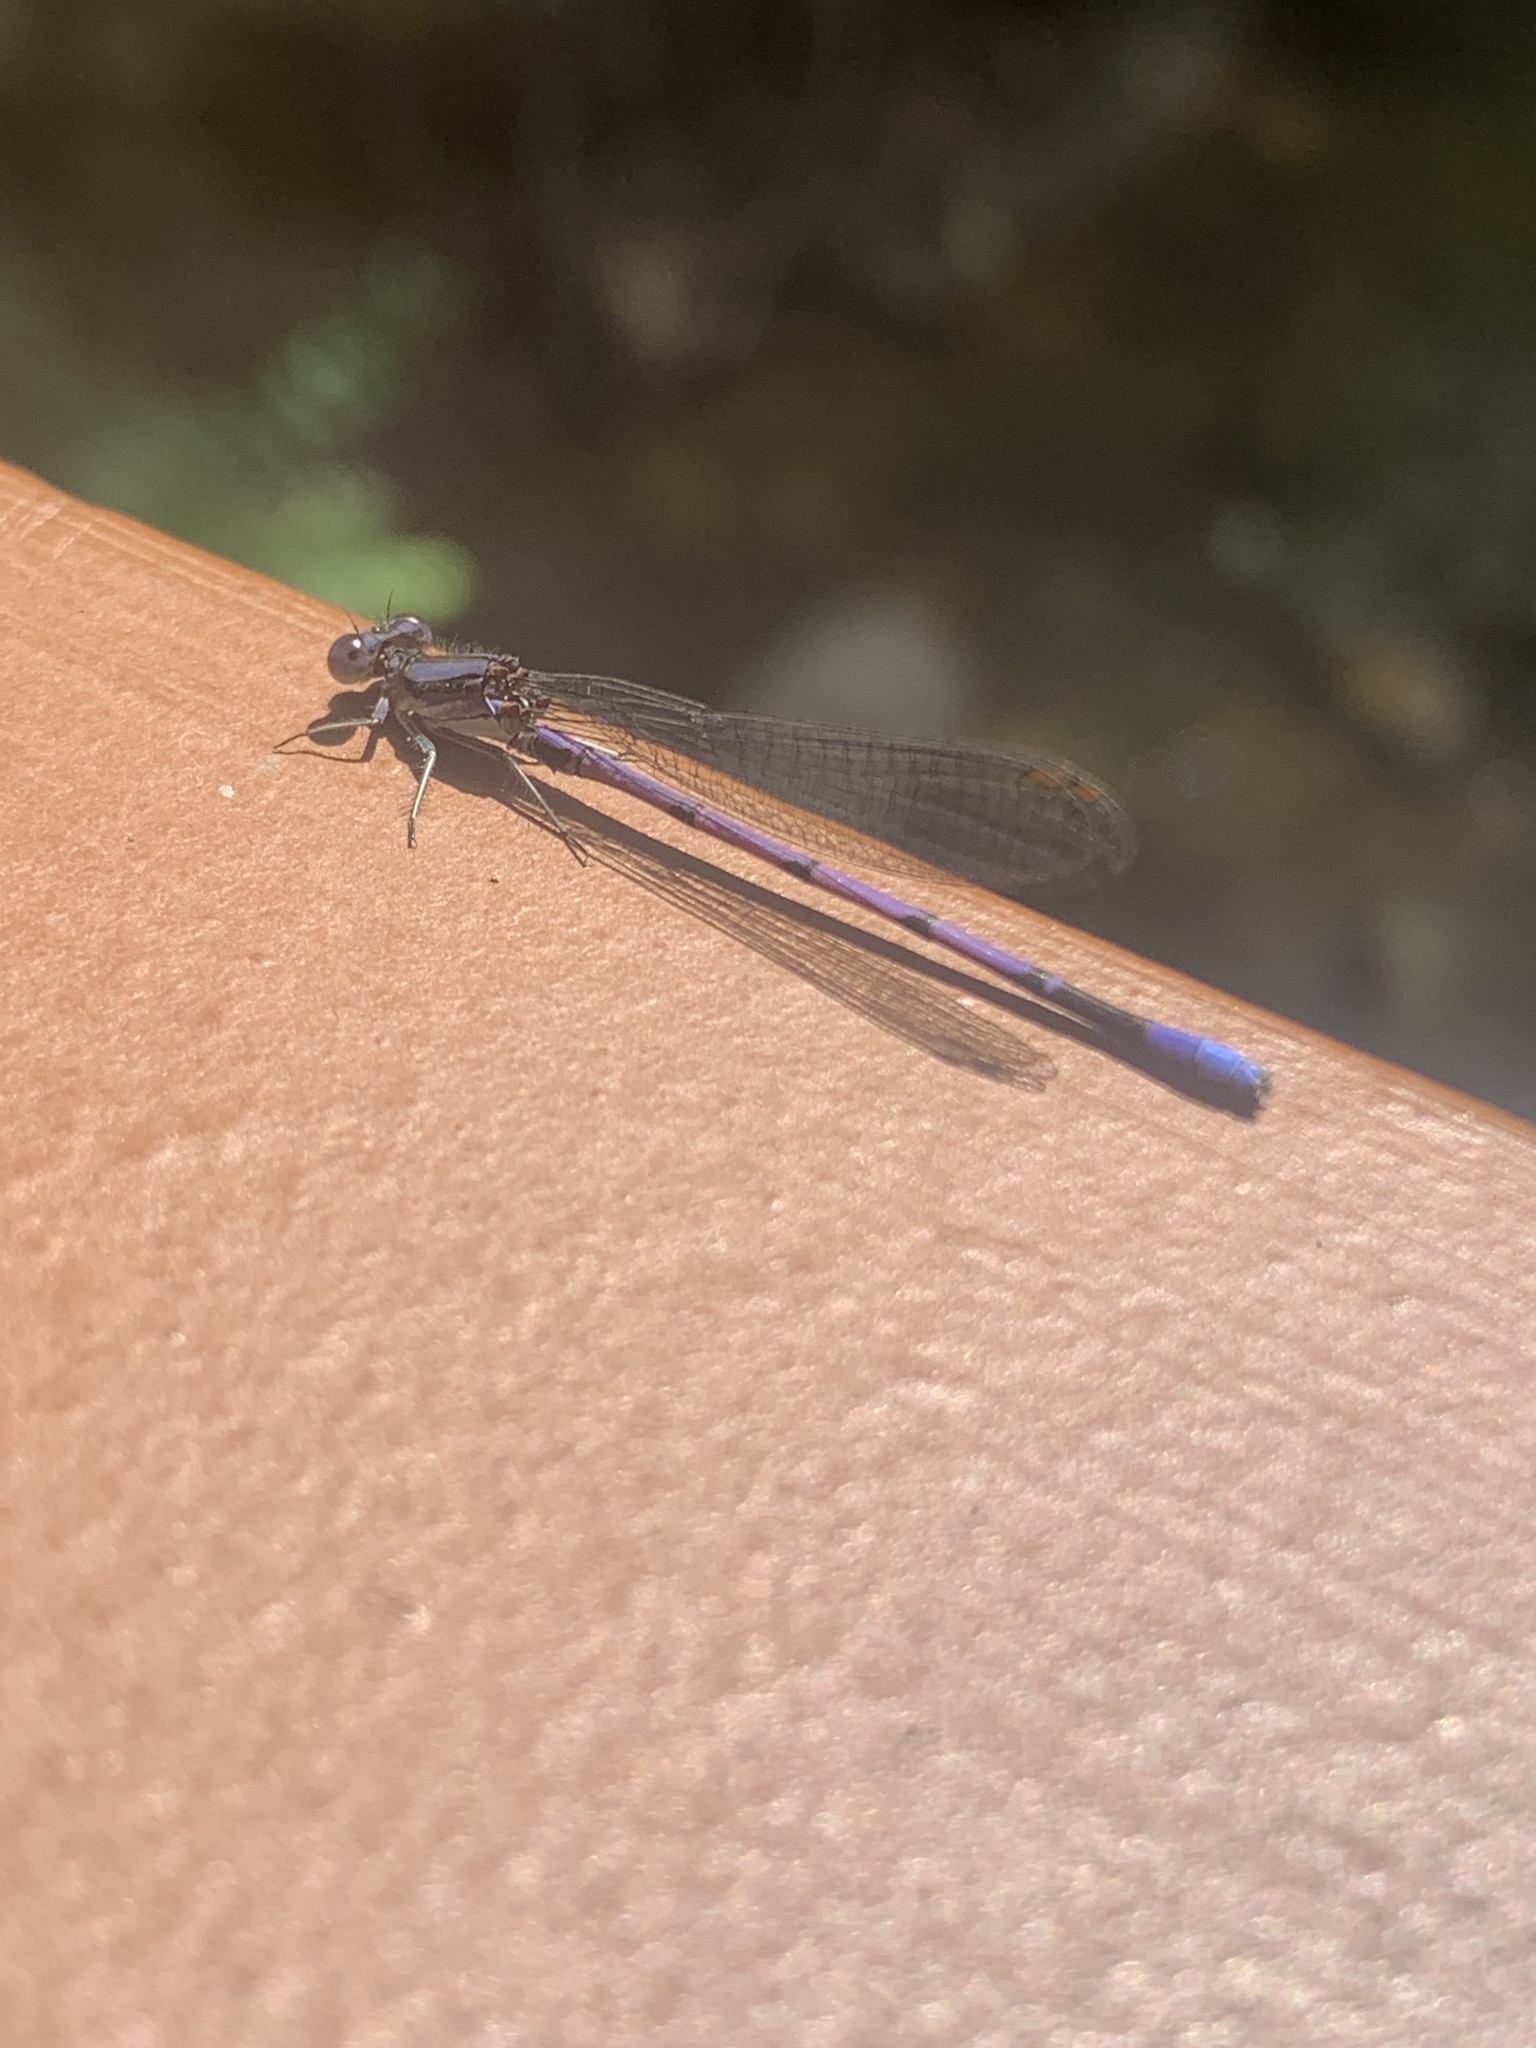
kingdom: Animalia
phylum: Arthropoda
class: Insecta
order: Odonata
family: Coenagrionidae
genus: Argia
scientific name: Argia fumipennis
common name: Variable dancer
